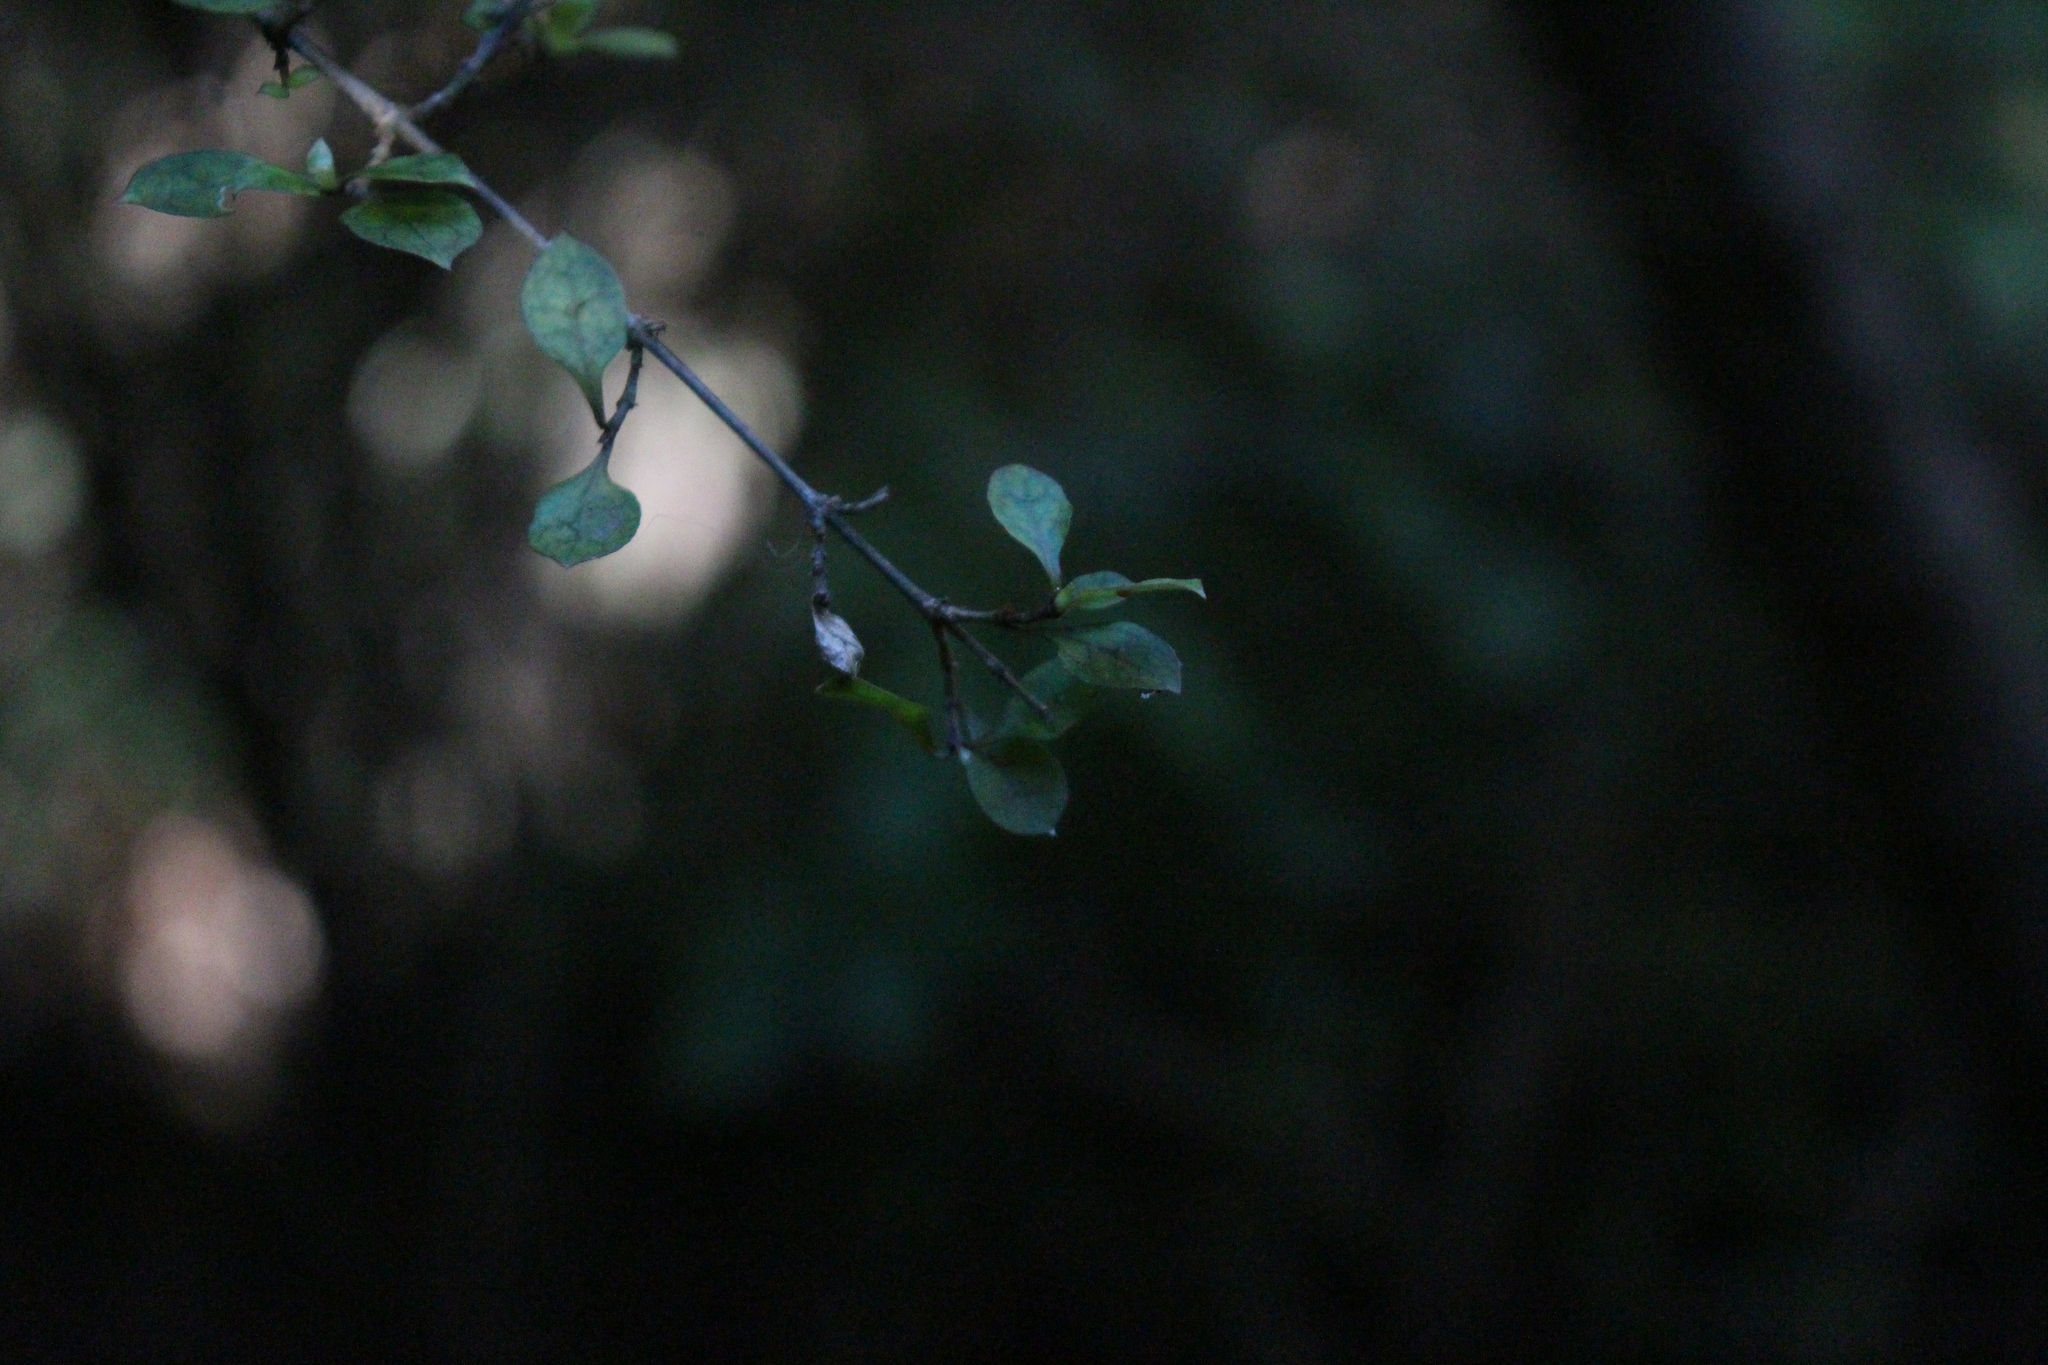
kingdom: Plantae
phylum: Tracheophyta
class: Magnoliopsida
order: Gentianales
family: Rubiaceae
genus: Coprosma
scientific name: Coprosma areolata
